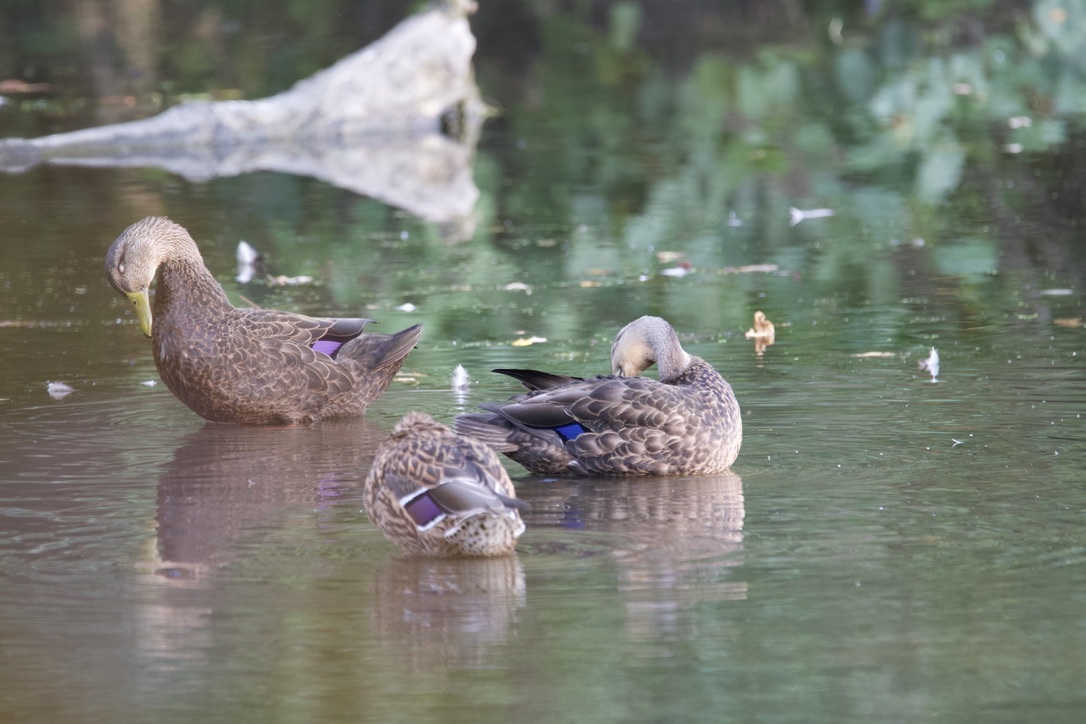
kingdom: Animalia
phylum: Chordata
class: Aves
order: Anseriformes
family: Anatidae
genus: Anas
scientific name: Anas rubripes
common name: American black duck
